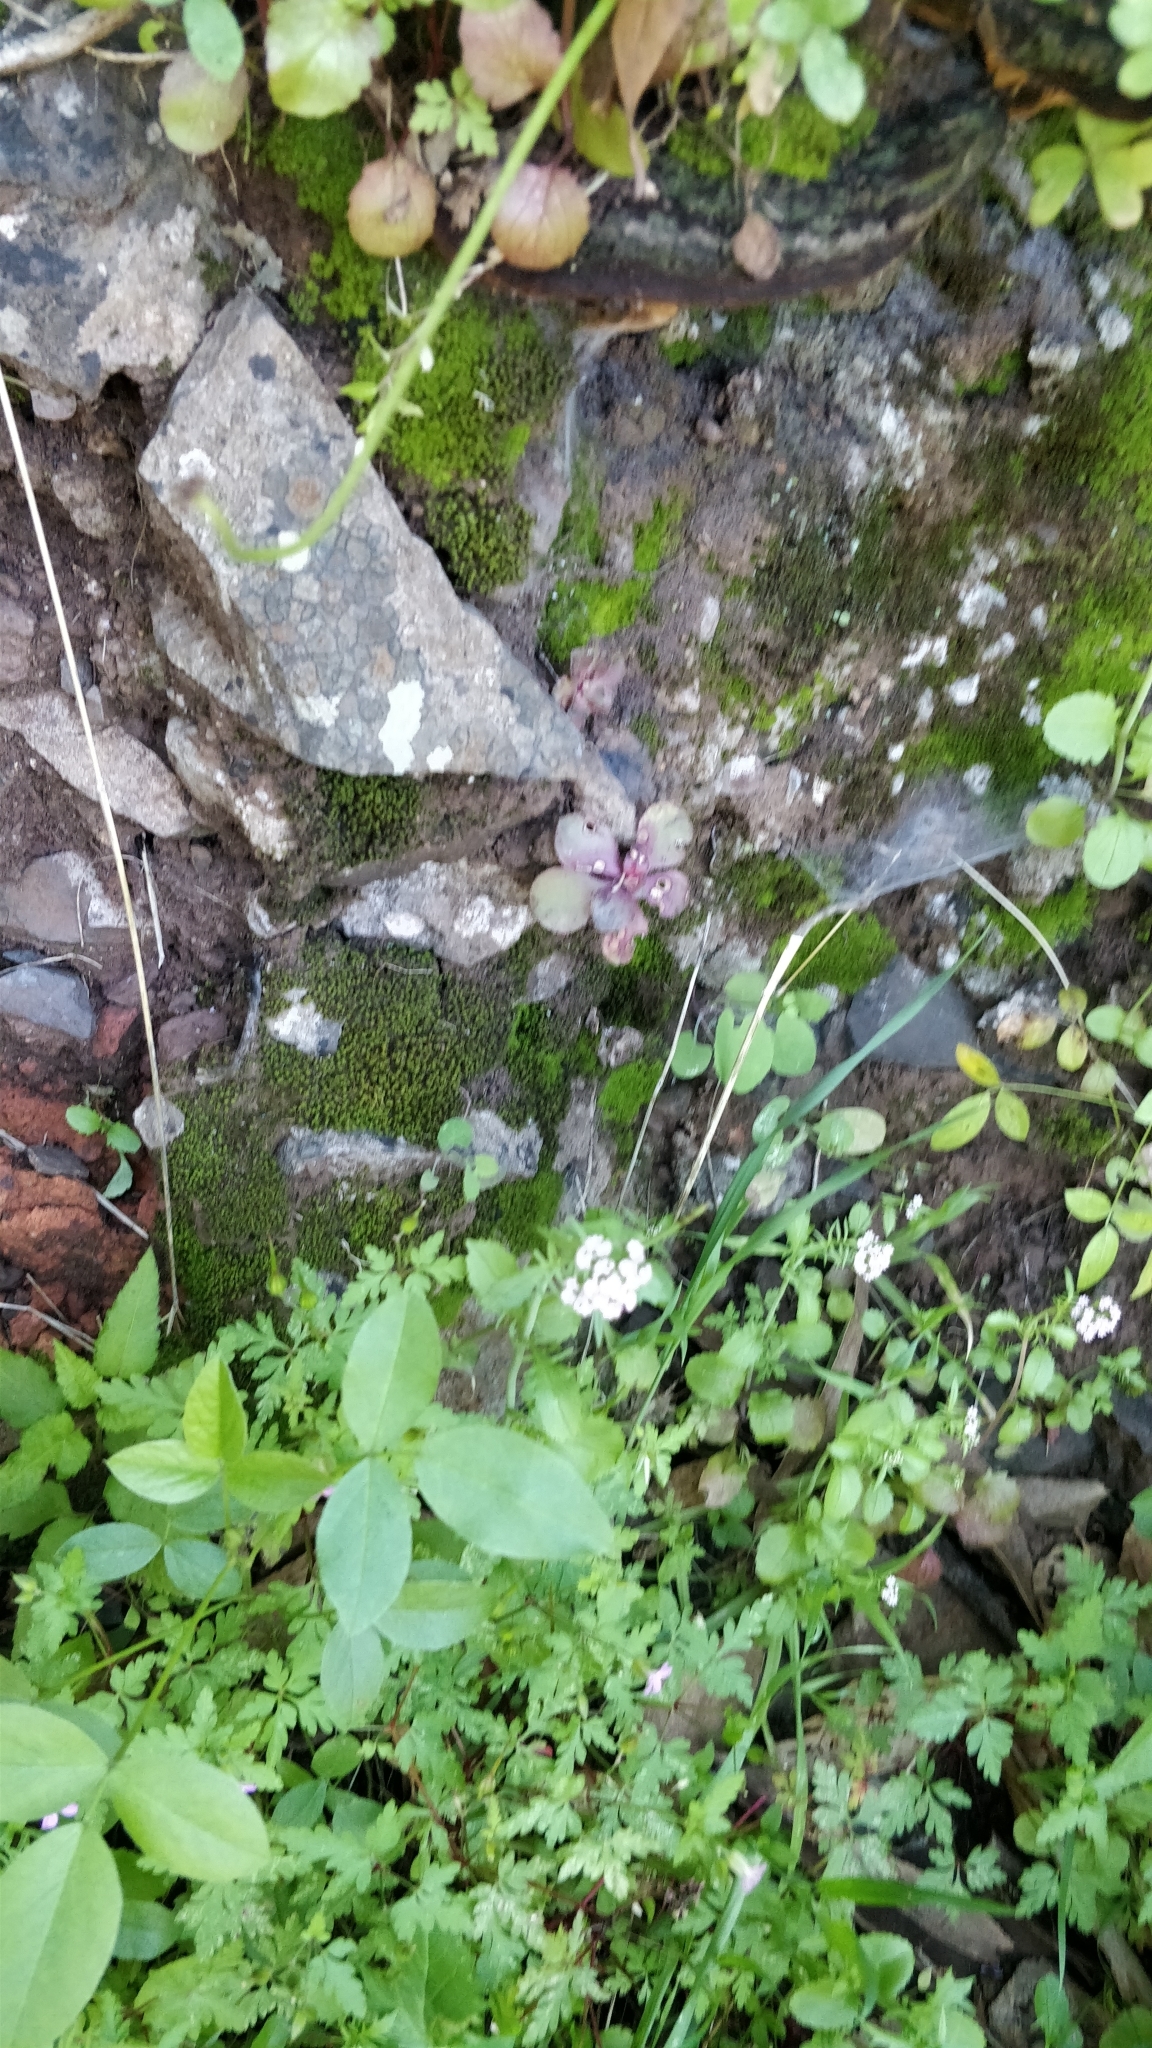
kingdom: Plantae
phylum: Tracheophyta
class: Magnoliopsida
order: Dipsacales
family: Caprifoliaceae
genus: Centranthus
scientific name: Centranthus calcitrapae
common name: Annual valerian
